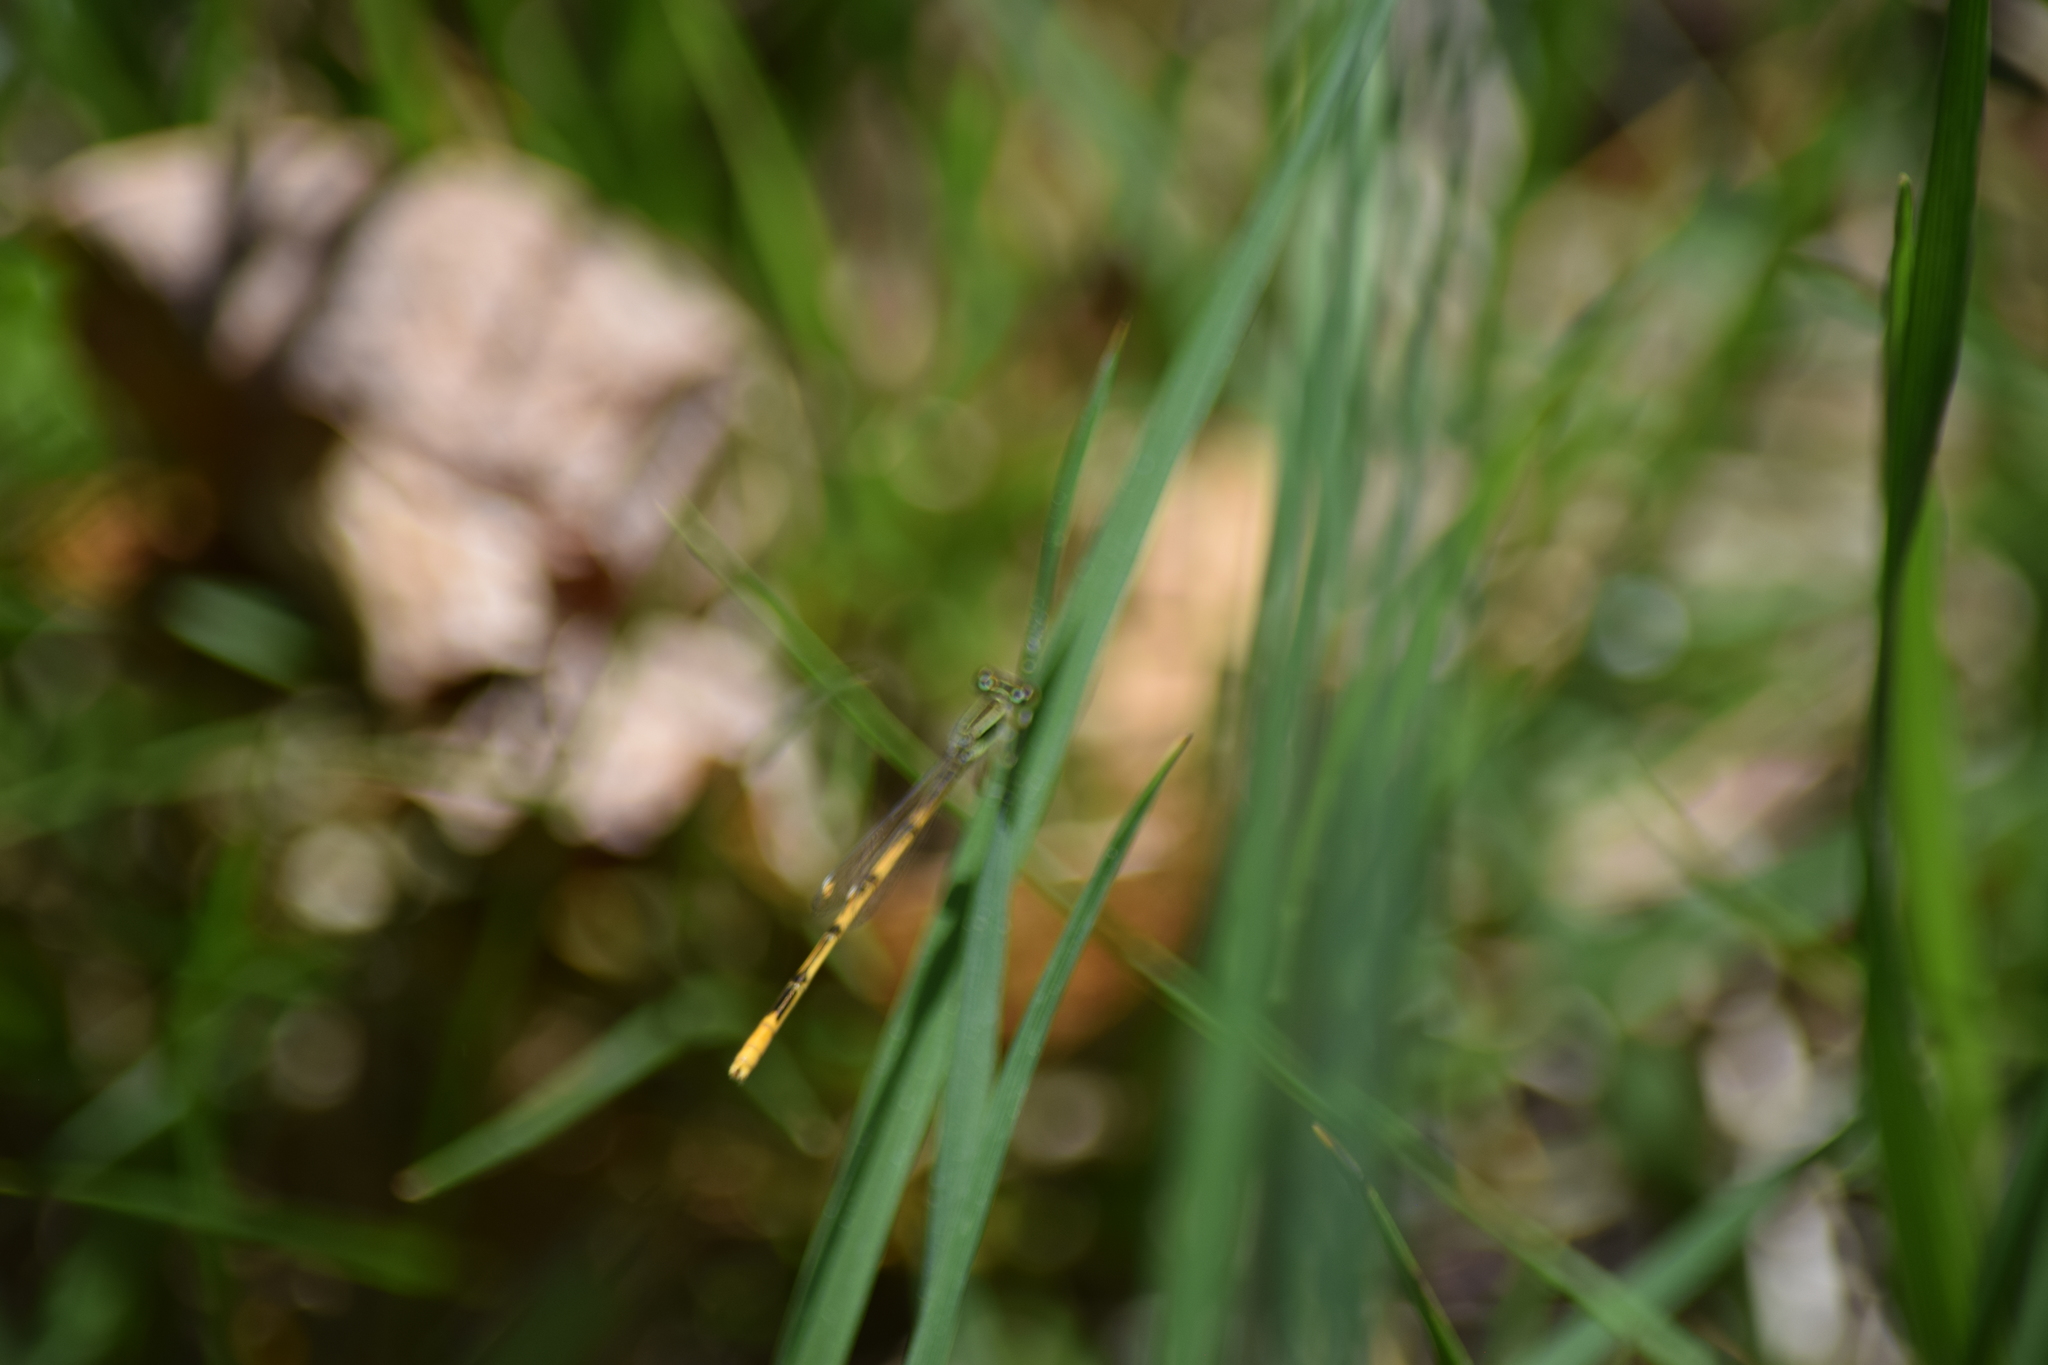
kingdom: Animalia
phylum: Arthropoda
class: Insecta
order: Odonata
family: Coenagrionidae
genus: Ischnura
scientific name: Ischnura hastata
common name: Citrine forktail
